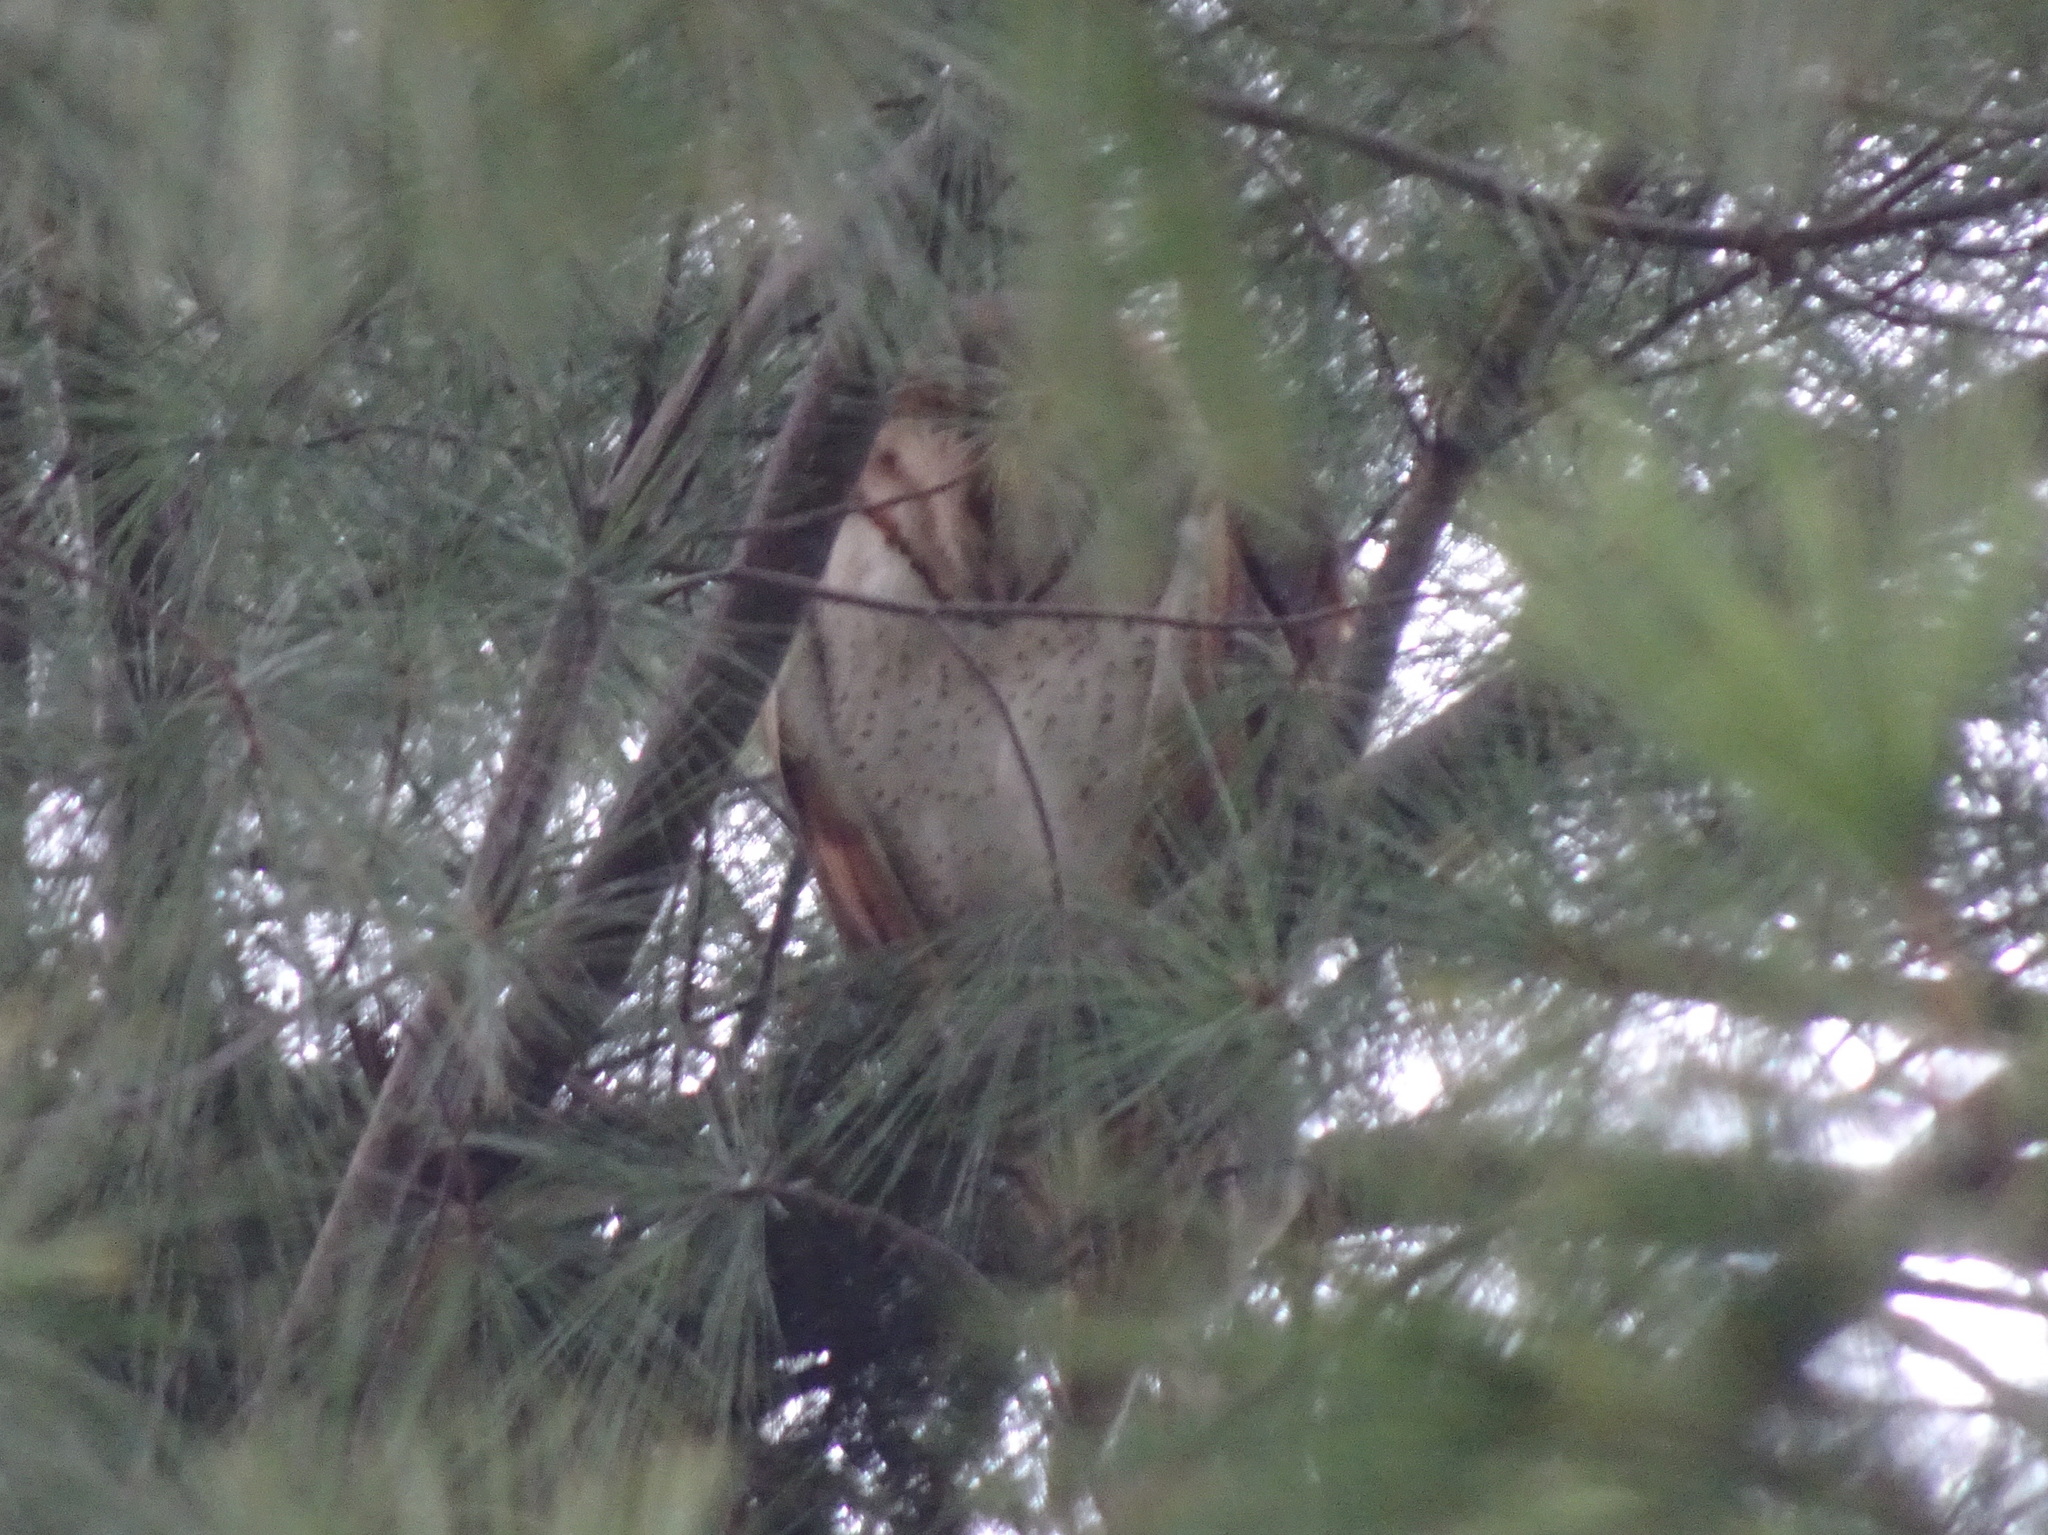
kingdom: Animalia
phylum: Chordata
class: Aves
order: Strigiformes
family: Tytonidae
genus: Tyto
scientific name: Tyto alba
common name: Barn owl
